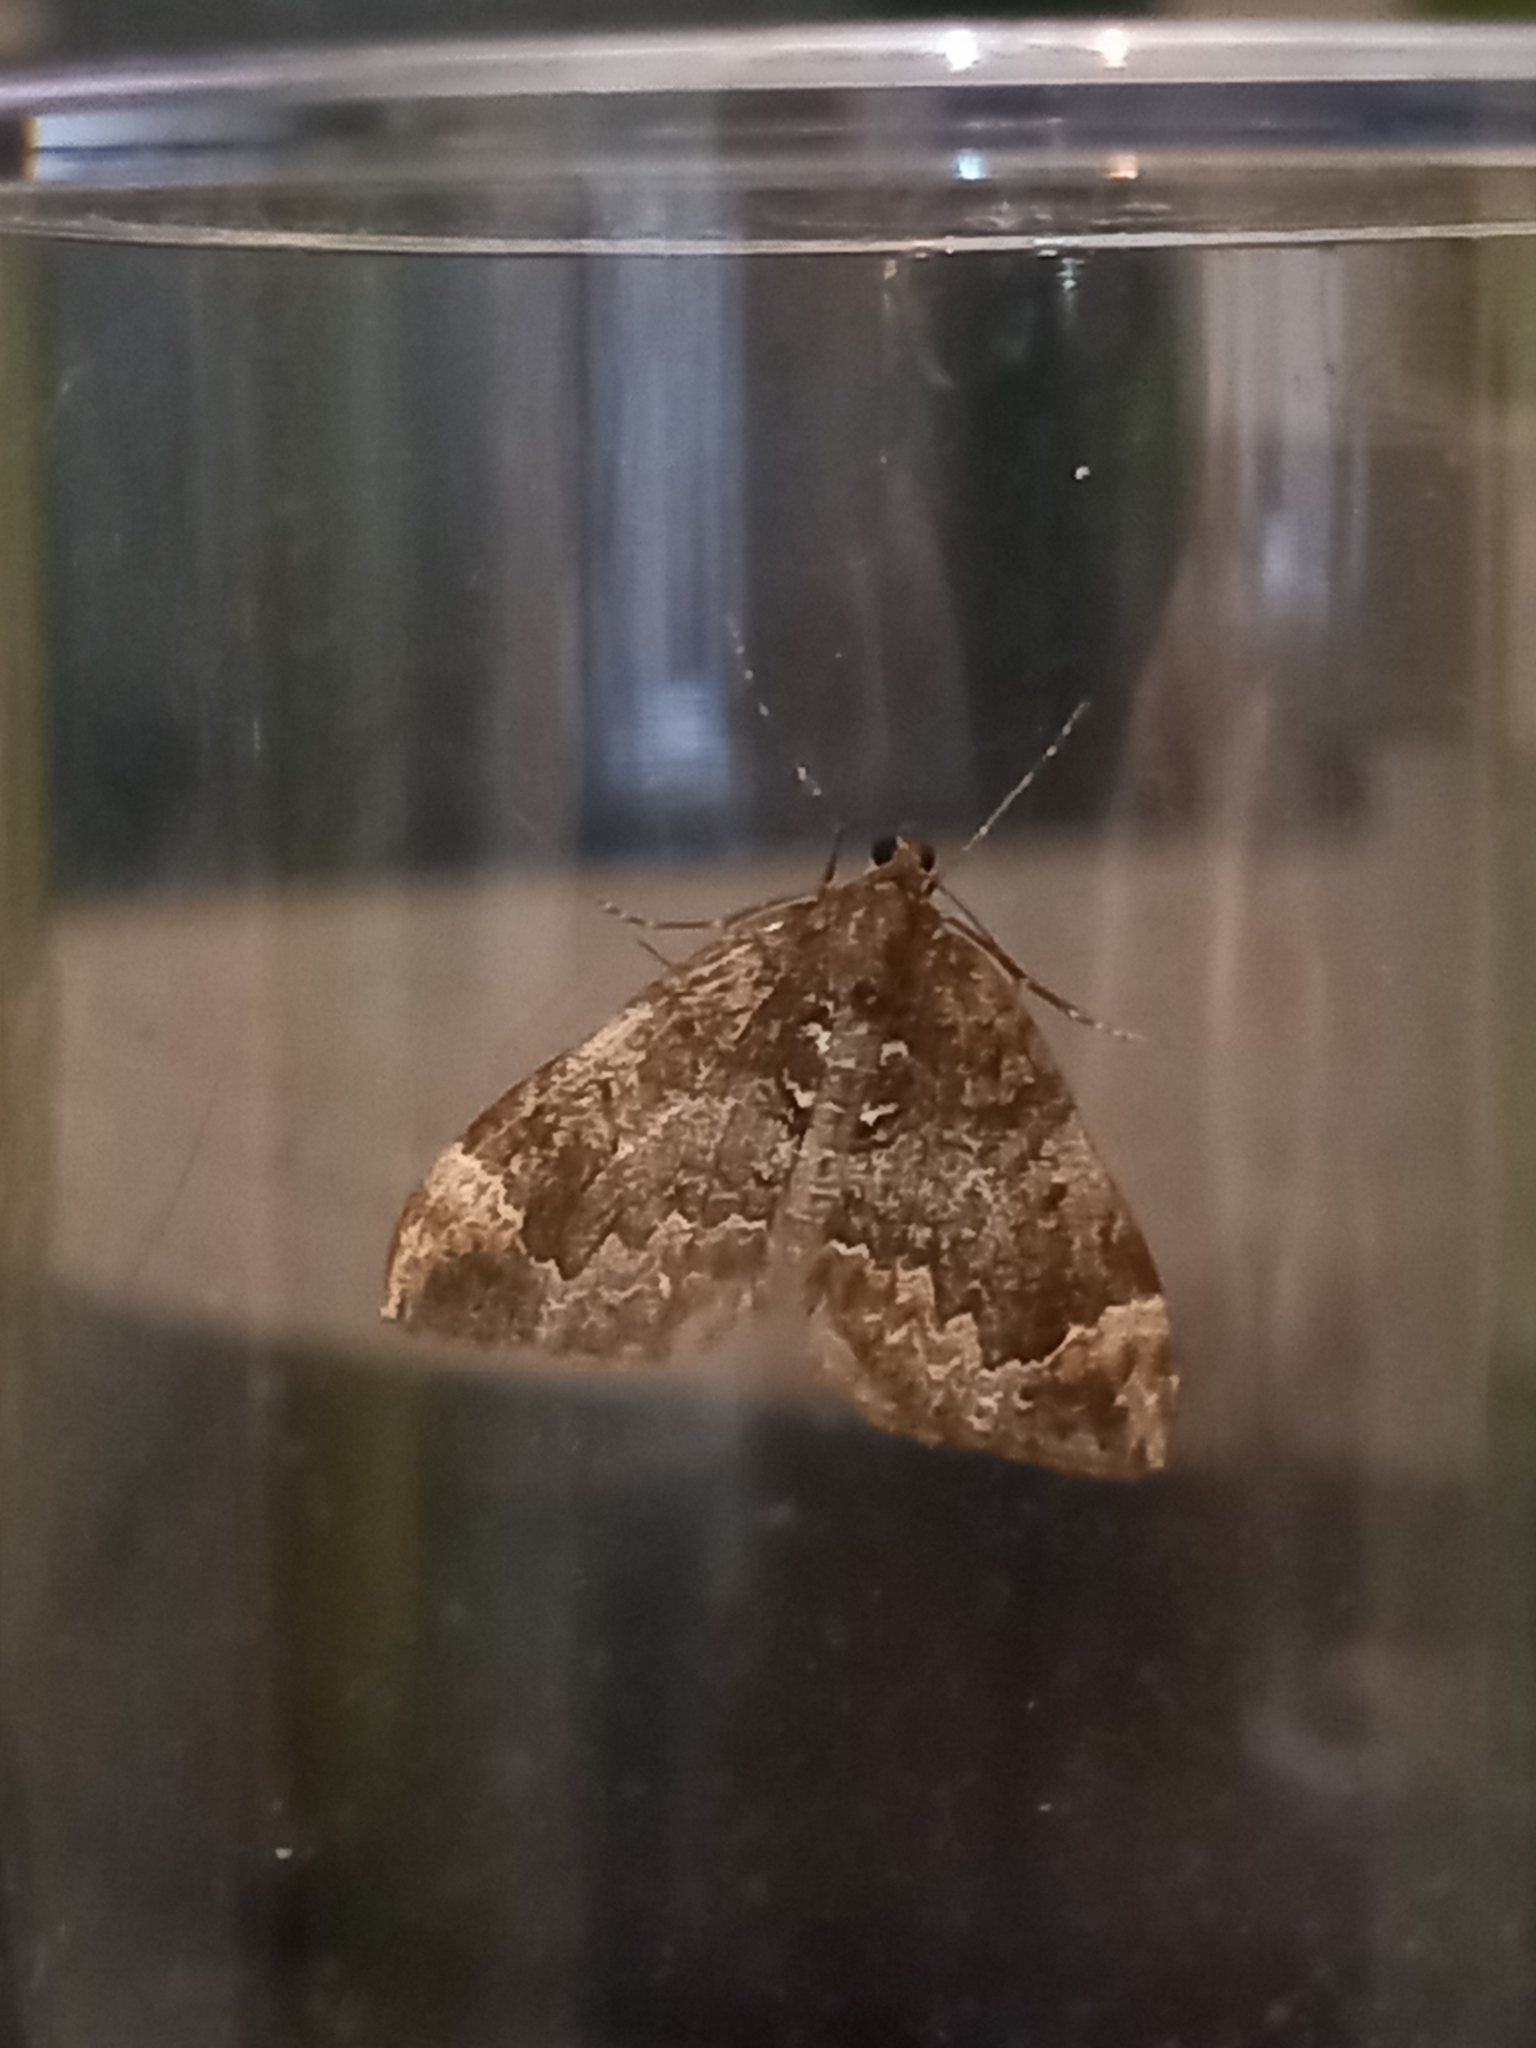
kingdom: Animalia
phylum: Arthropoda
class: Insecta
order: Lepidoptera
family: Geometridae
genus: Dysstroma
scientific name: Dysstroma truncata
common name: Common marbled carpet
